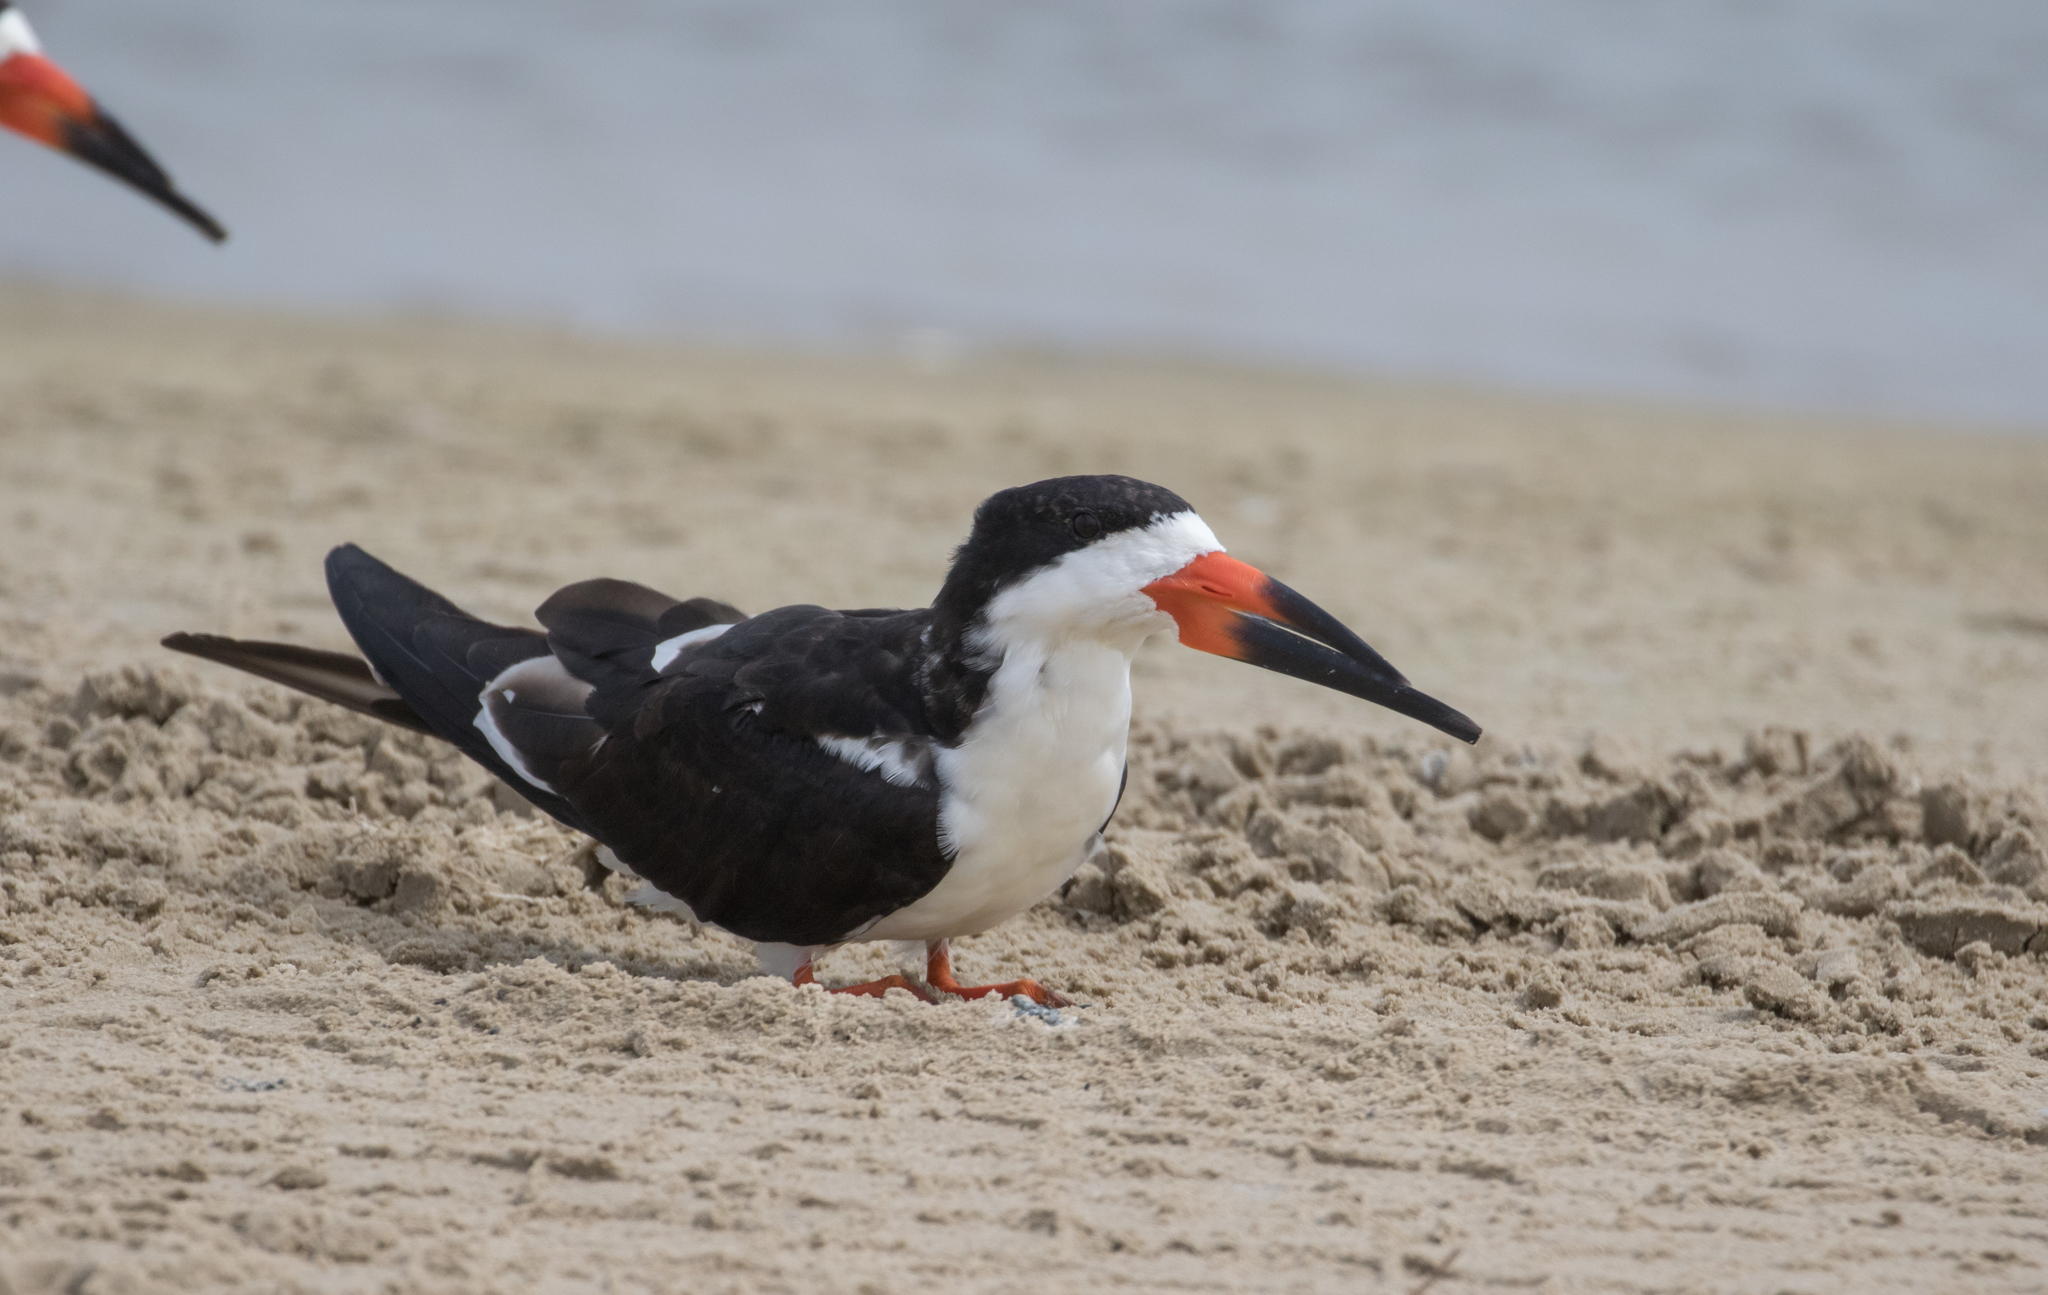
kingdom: Animalia
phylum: Chordata
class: Aves
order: Charadriiformes
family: Laridae
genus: Rynchops
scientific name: Rynchops niger
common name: Black skimmer
